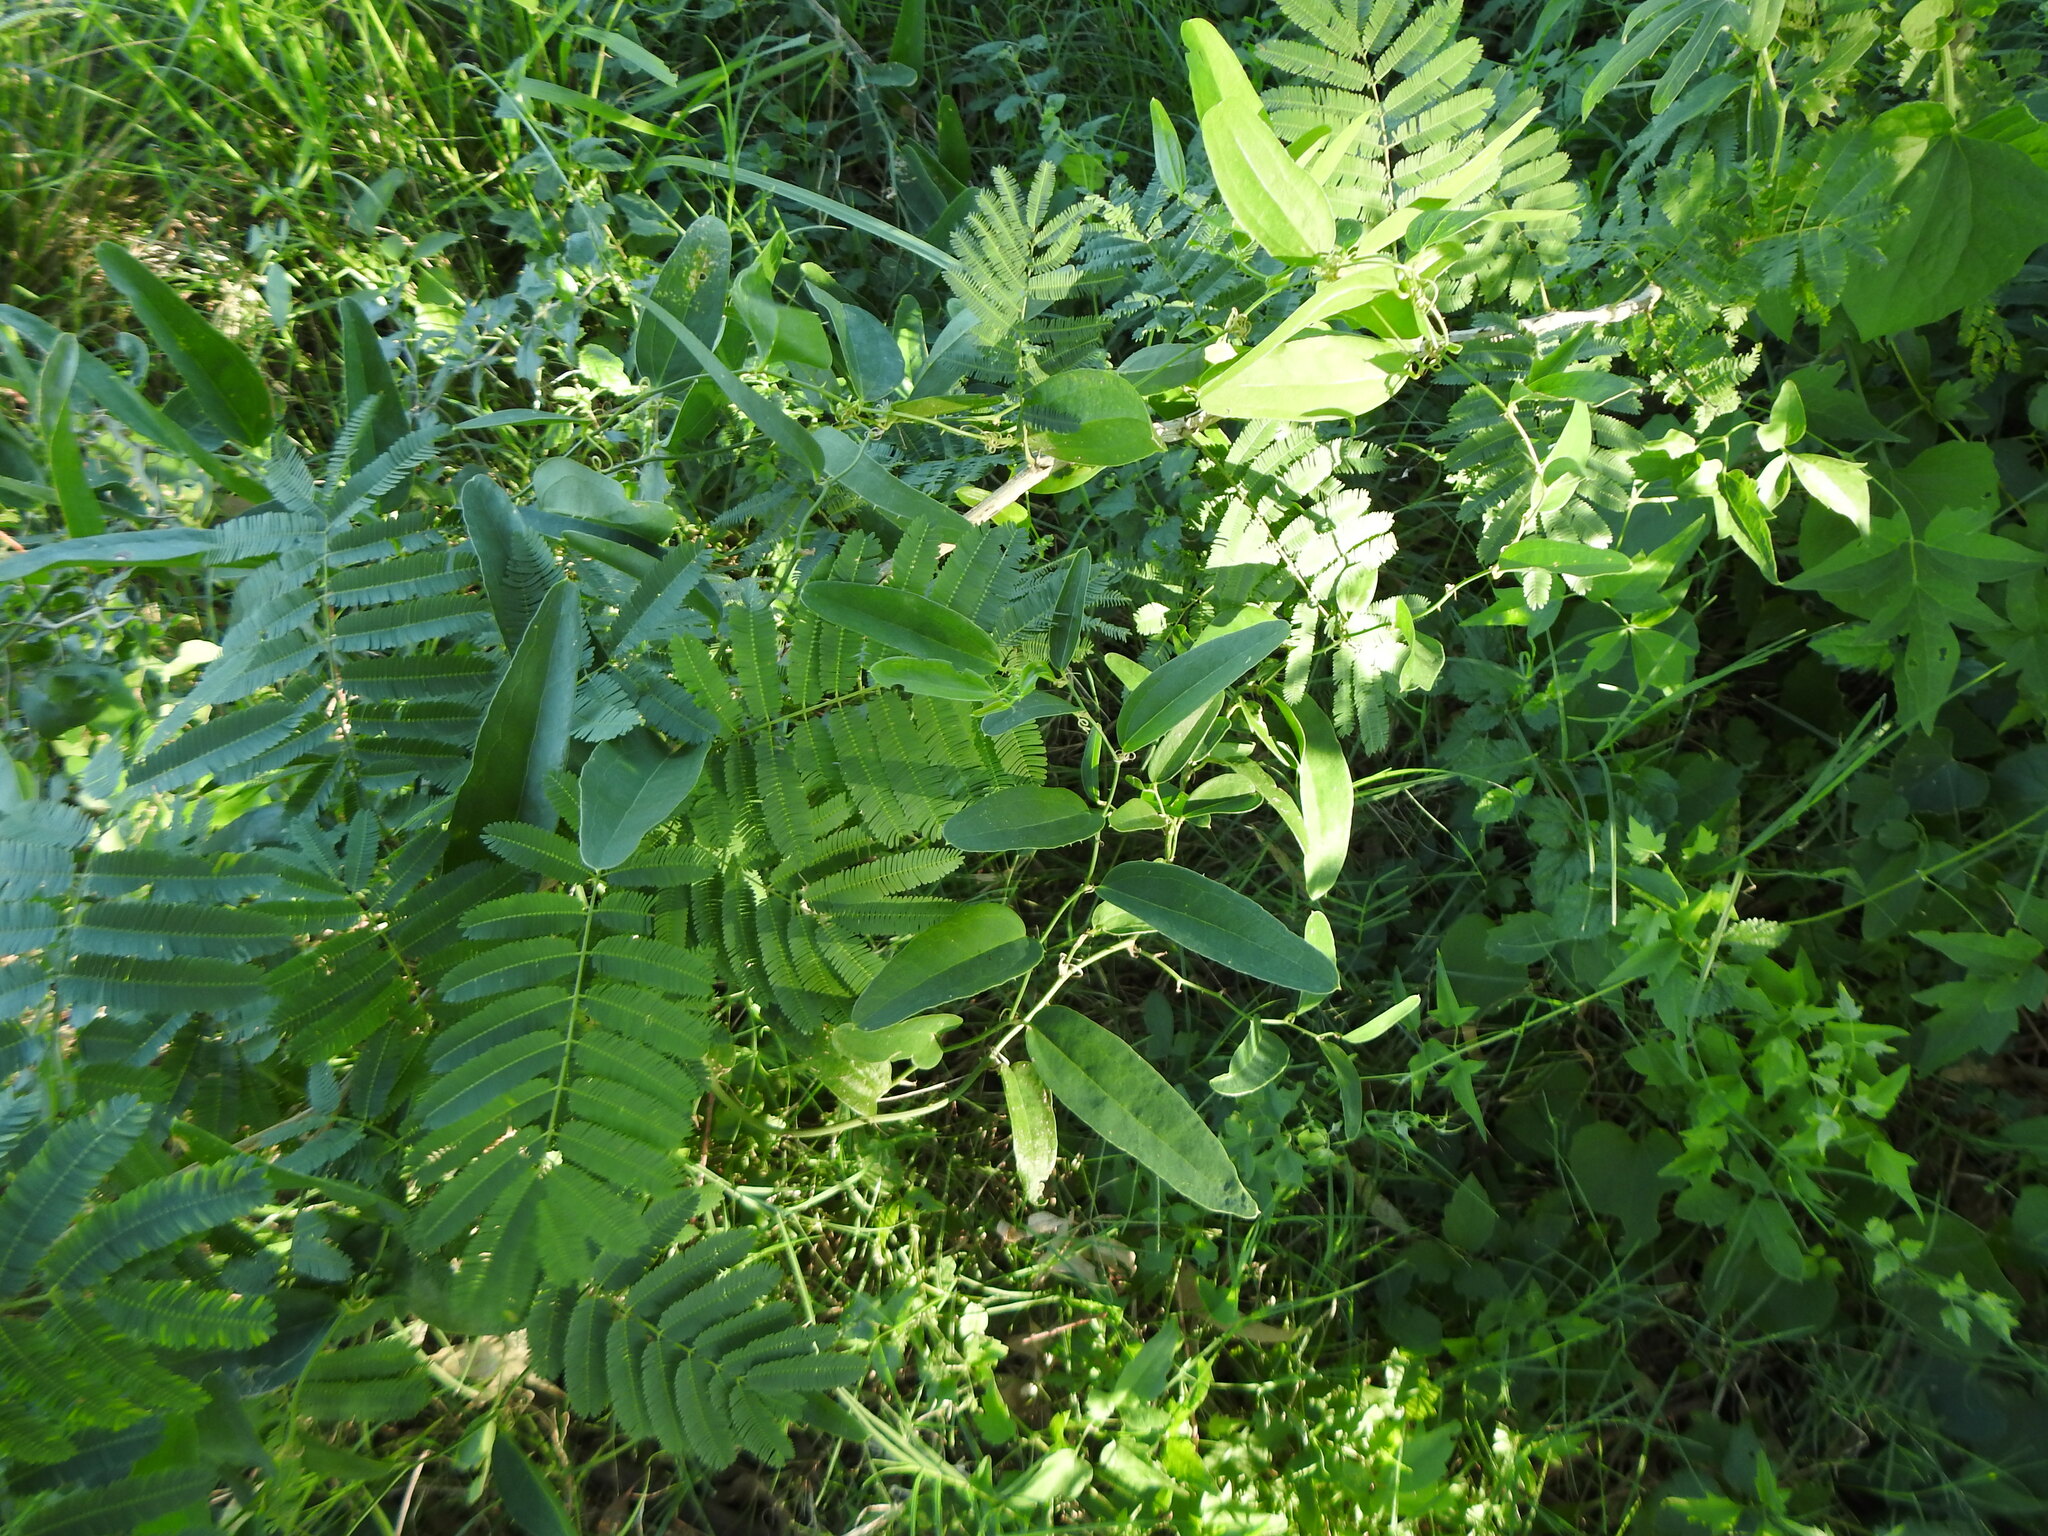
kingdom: Plantae
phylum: Tracheophyta
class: Magnoliopsida
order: Fabales
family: Fabaceae
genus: Senegalia
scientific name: Senegalia bonariensis
